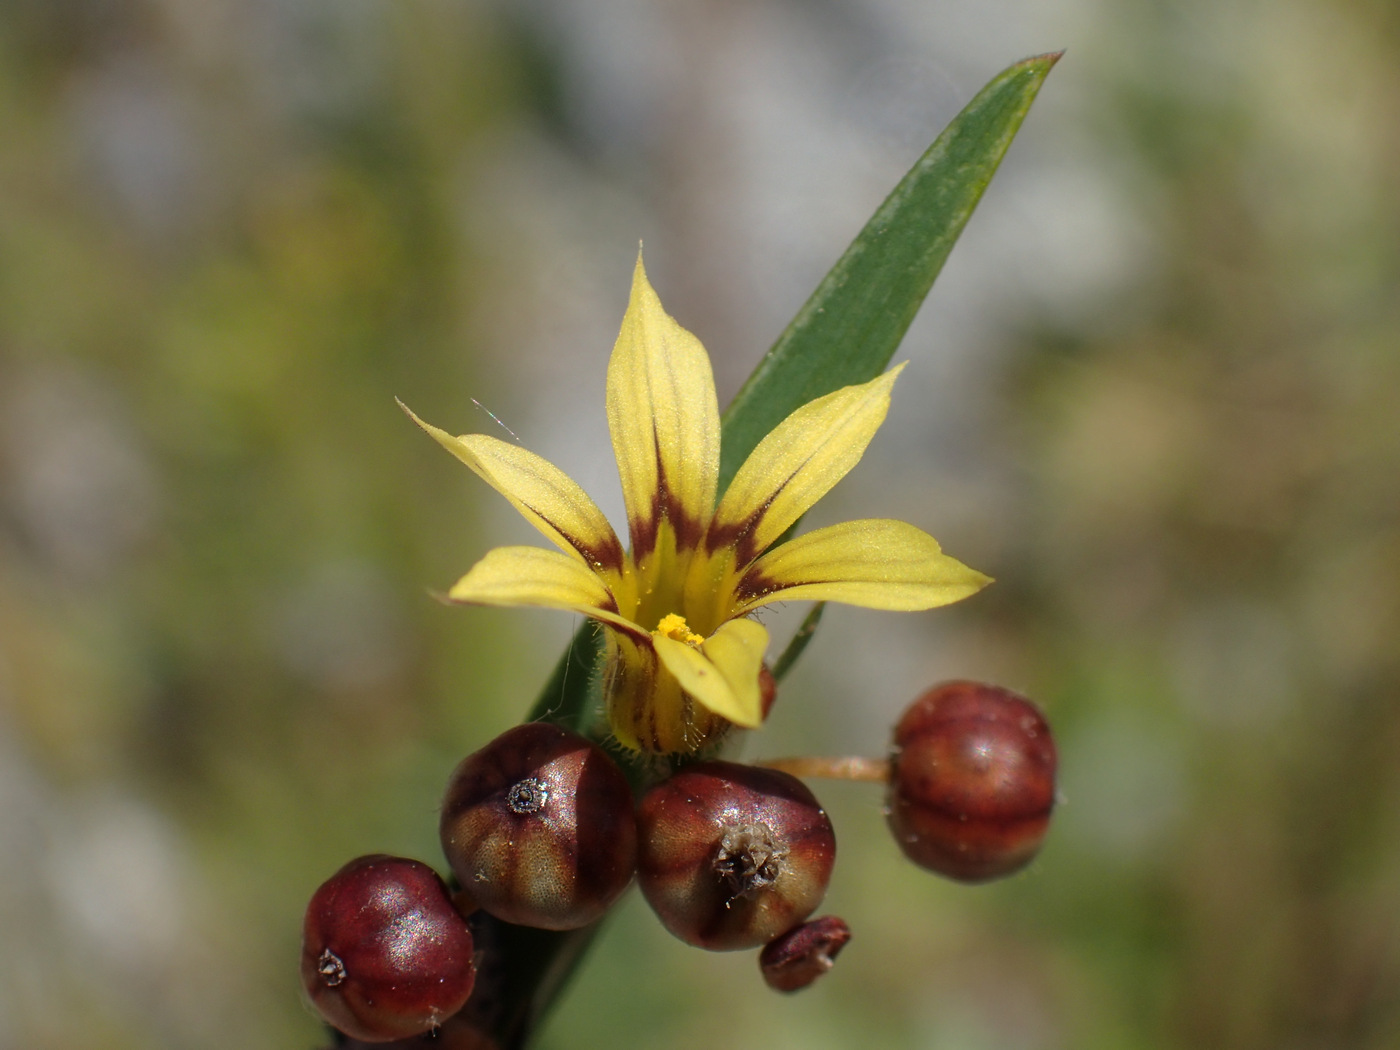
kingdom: Plantae
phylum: Tracheophyta
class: Liliopsida
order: Asparagales
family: Iridaceae
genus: Sisyrinchium
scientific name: Sisyrinchium micranthum
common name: Bermuda pigroot
